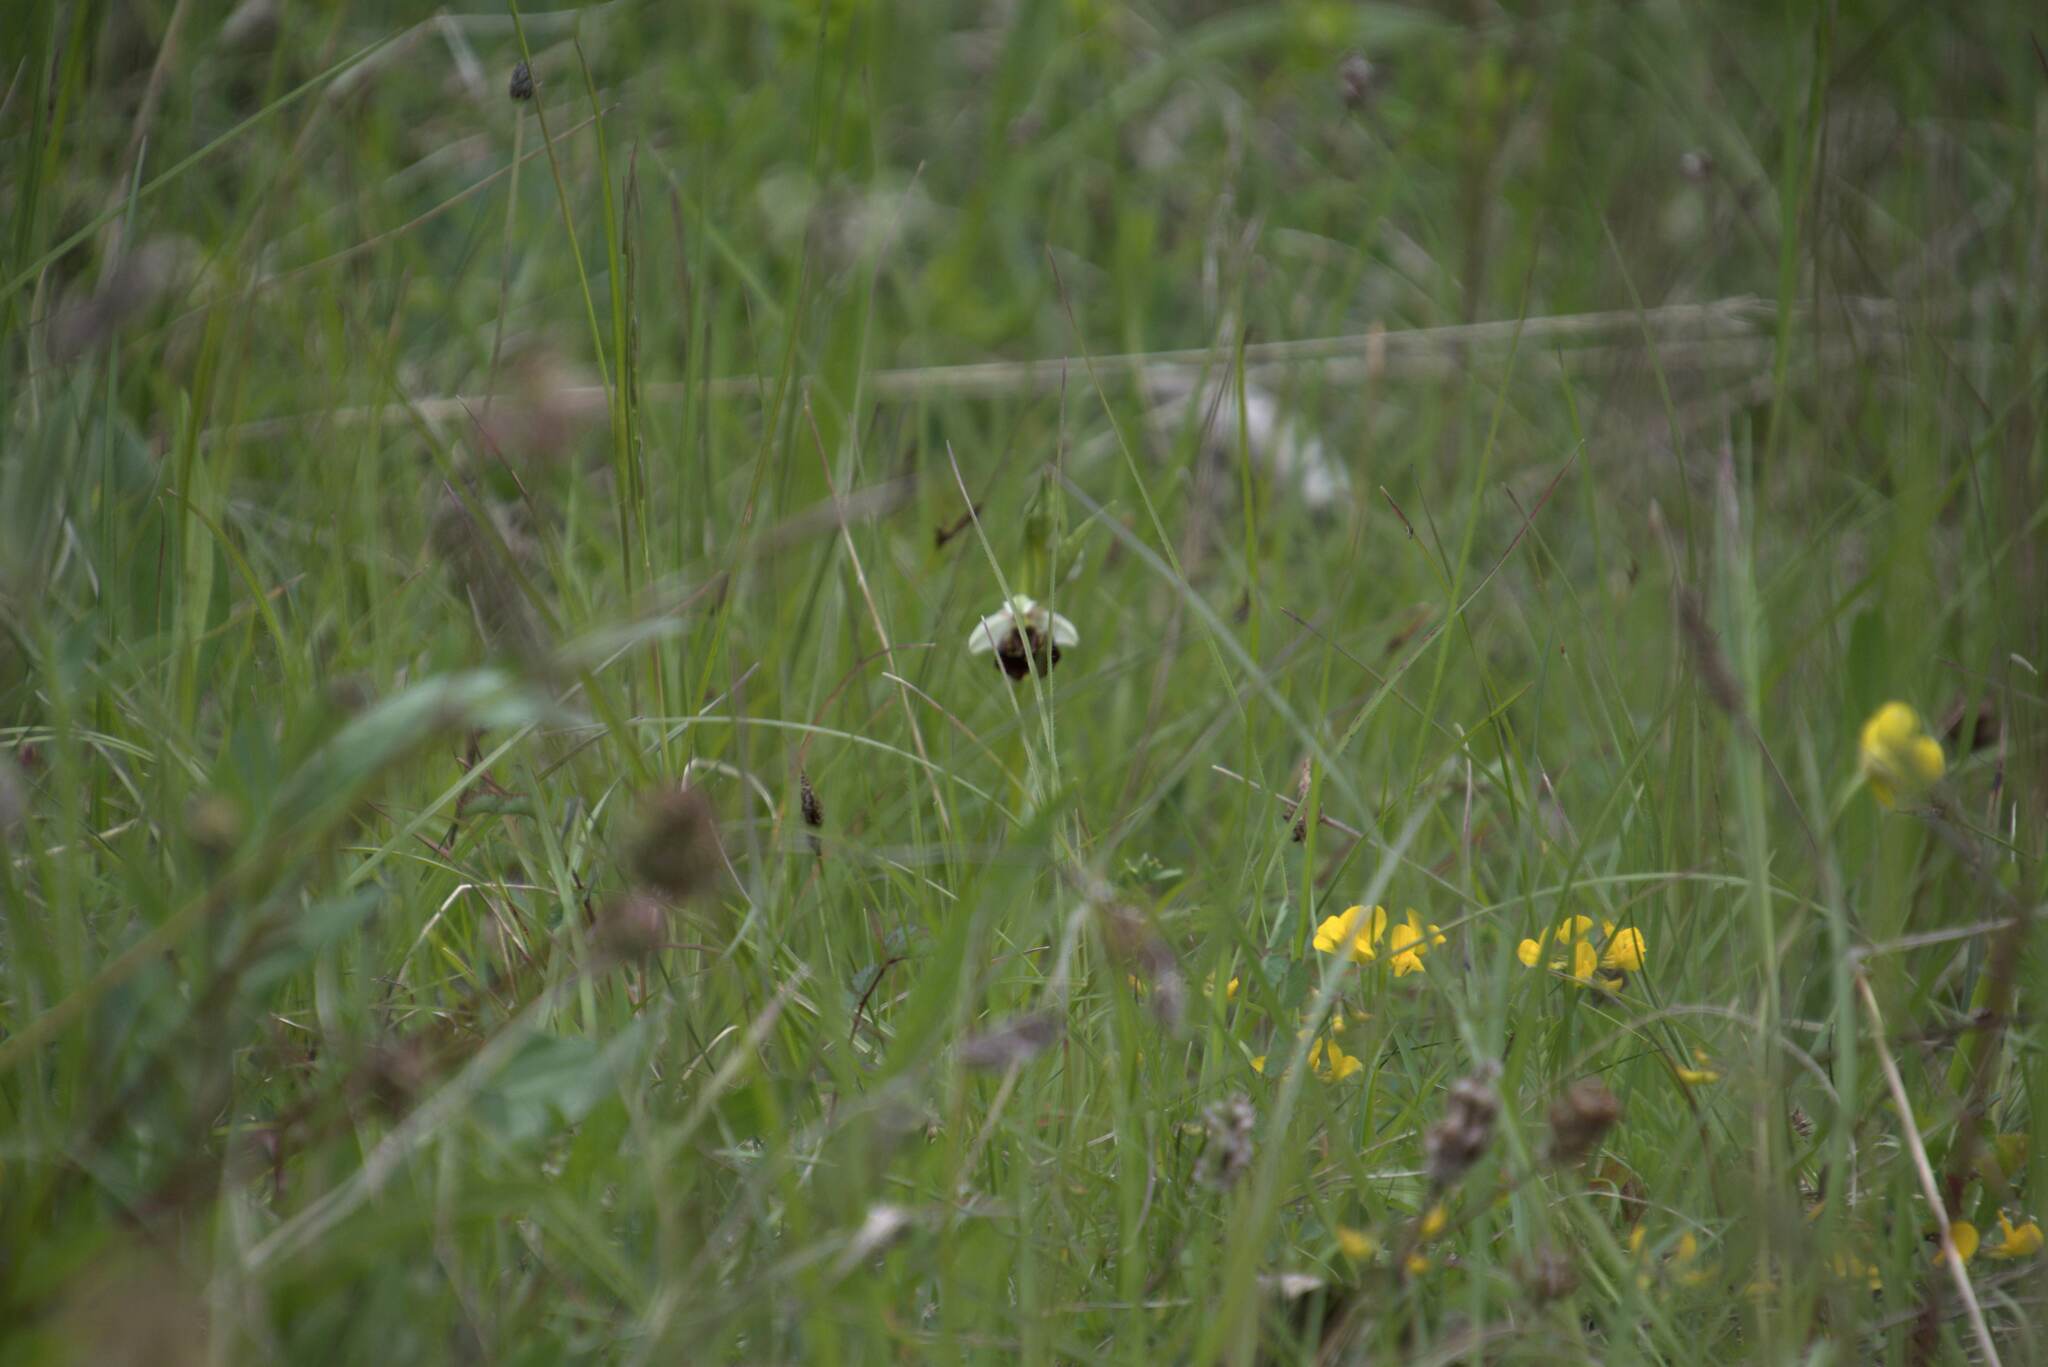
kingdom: Plantae
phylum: Tracheophyta
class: Liliopsida
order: Asparagales
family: Orchidaceae
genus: Ophrys
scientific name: Ophrys holosericea
